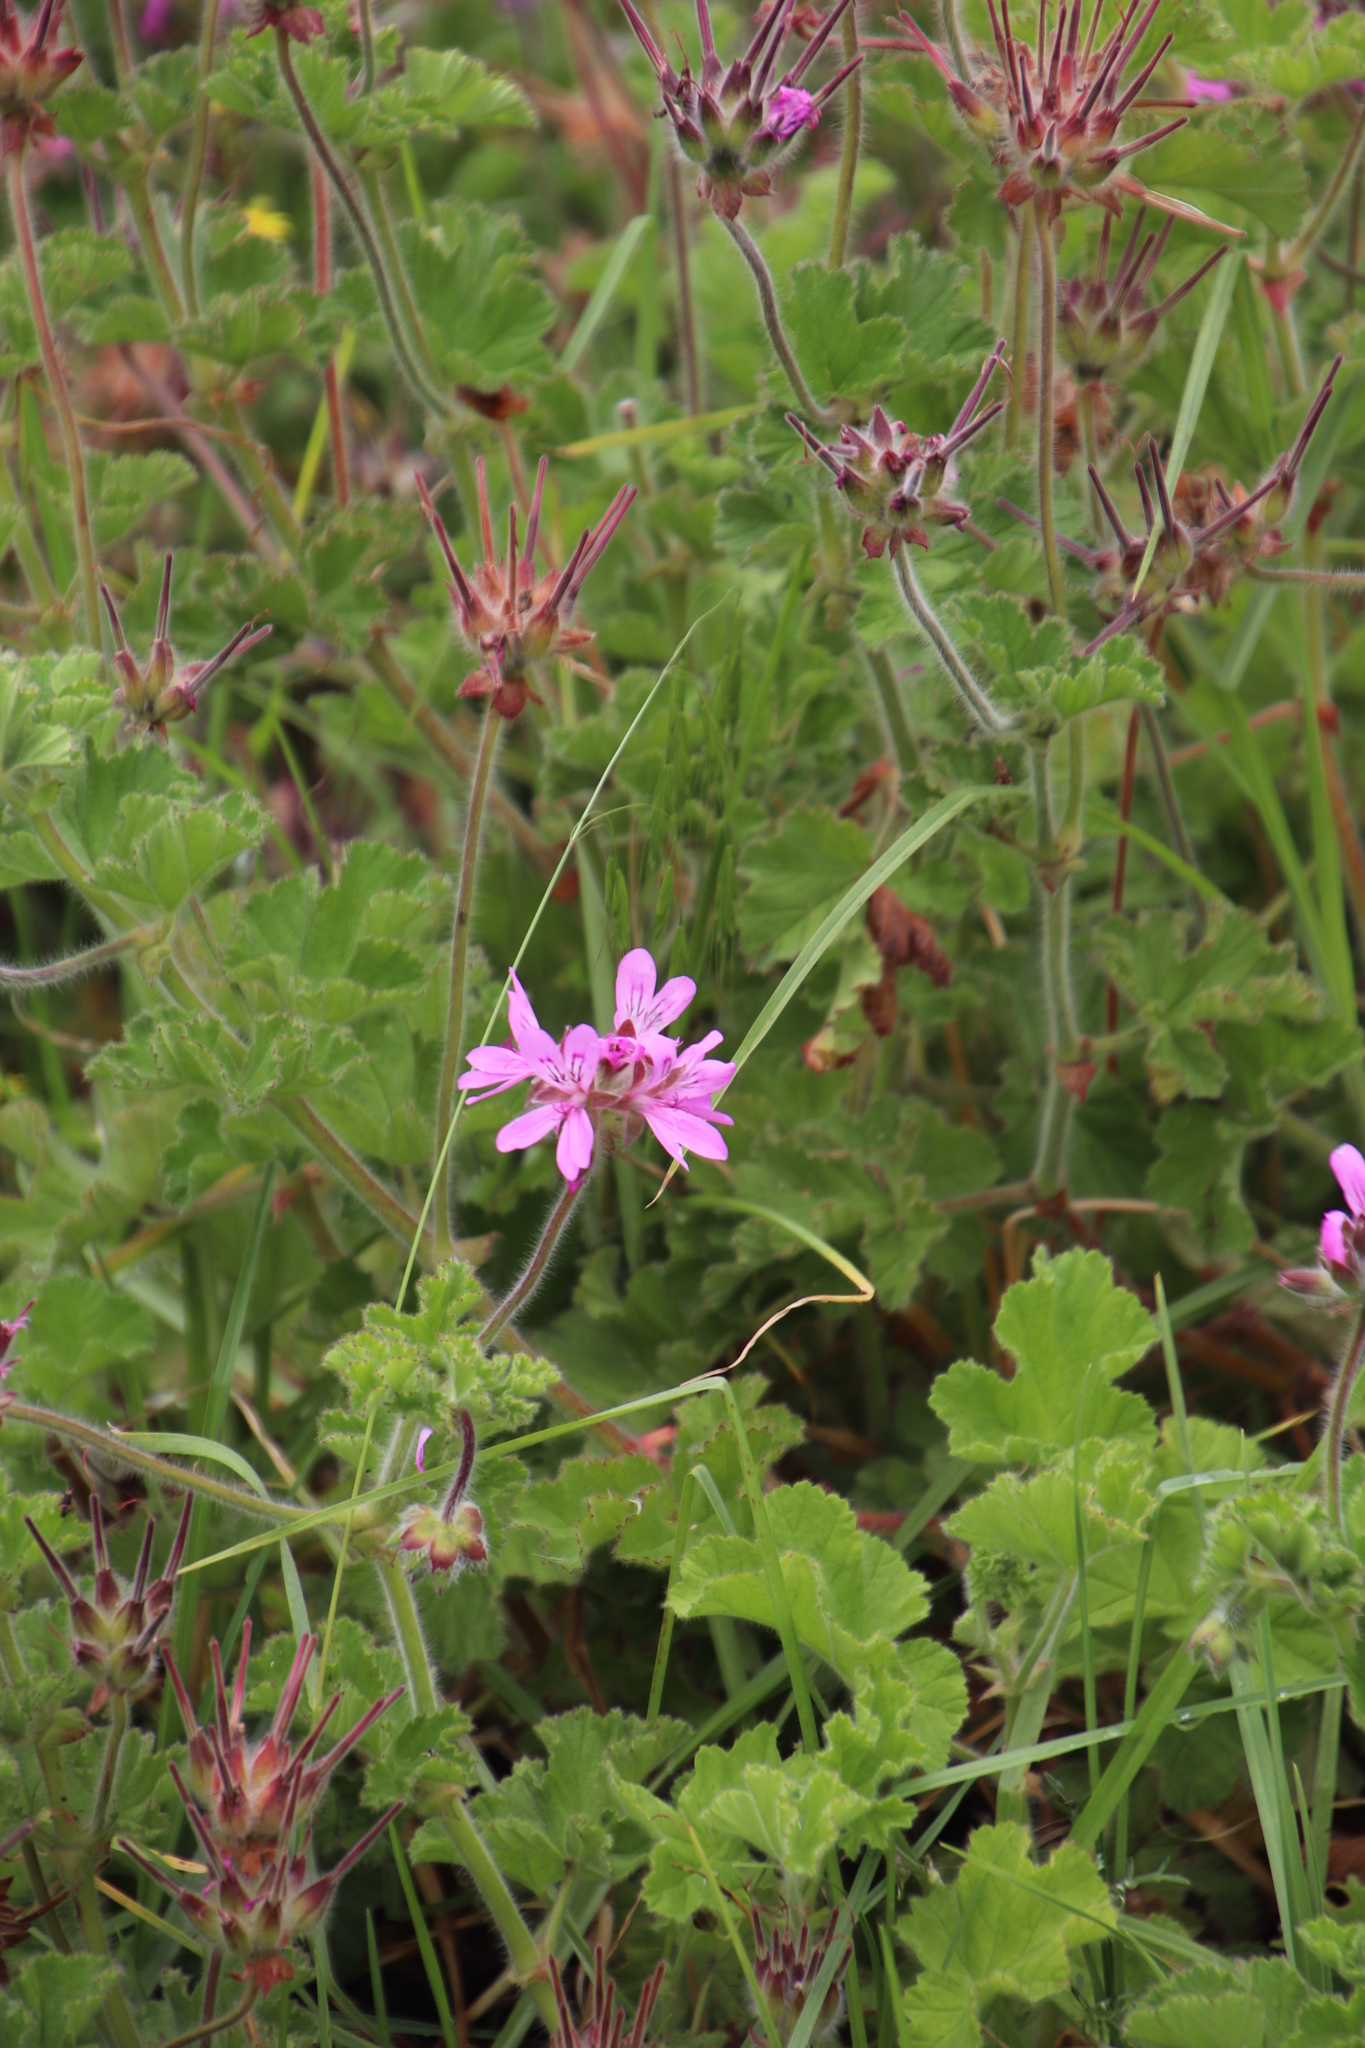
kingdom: Plantae
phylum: Tracheophyta
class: Magnoliopsida
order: Geraniales
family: Geraniaceae
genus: Pelargonium
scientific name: Pelargonium capitatum
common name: Rose scented geranium
